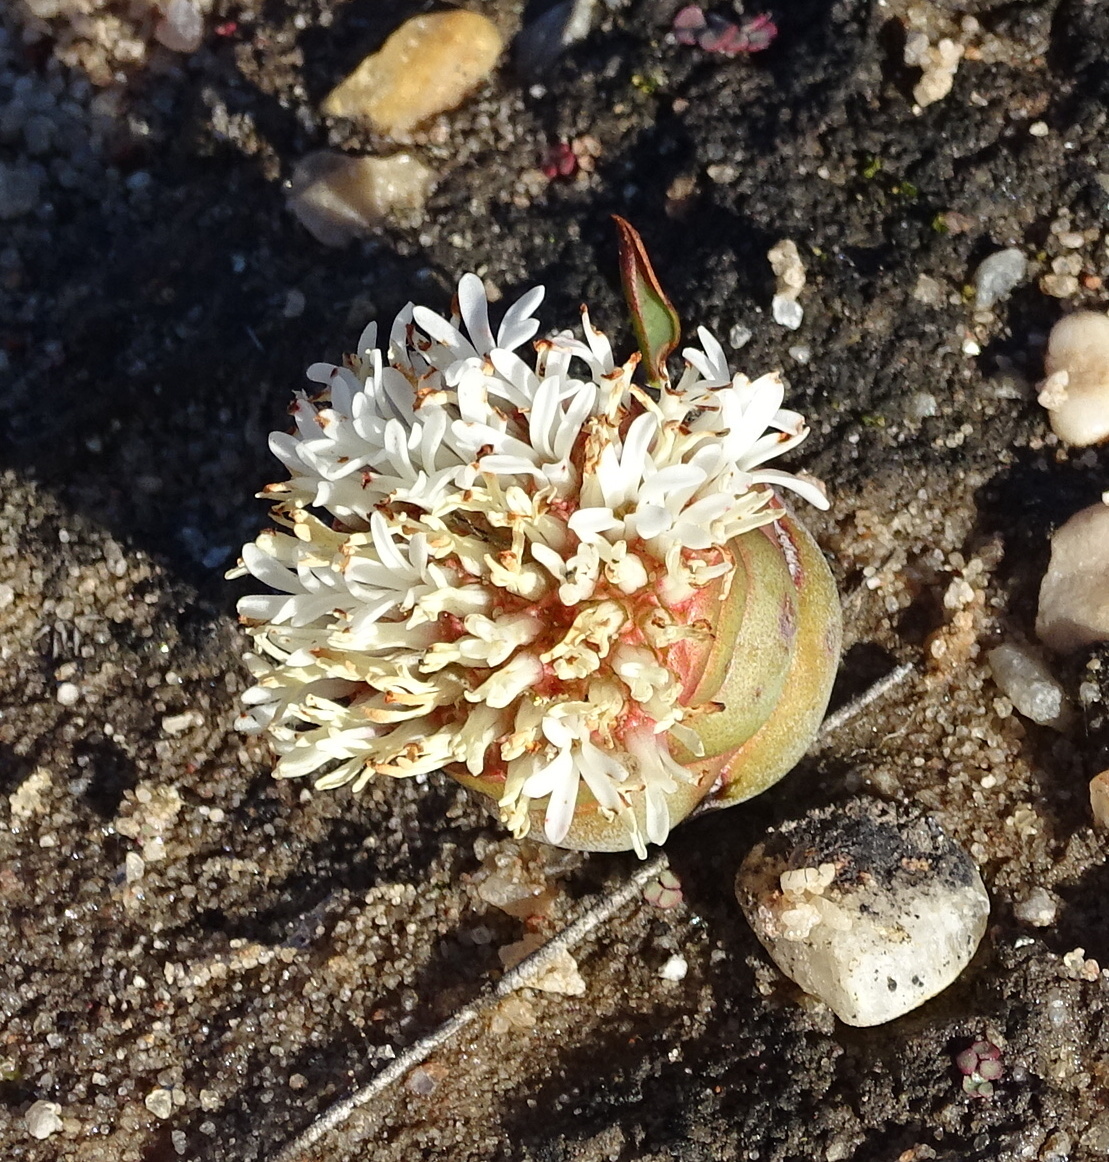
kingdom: Plantae
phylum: Tracheophyta
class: Magnoliopsida
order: Saxifragales
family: Crassulaceae
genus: Crassula
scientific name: Crassula columnaris
